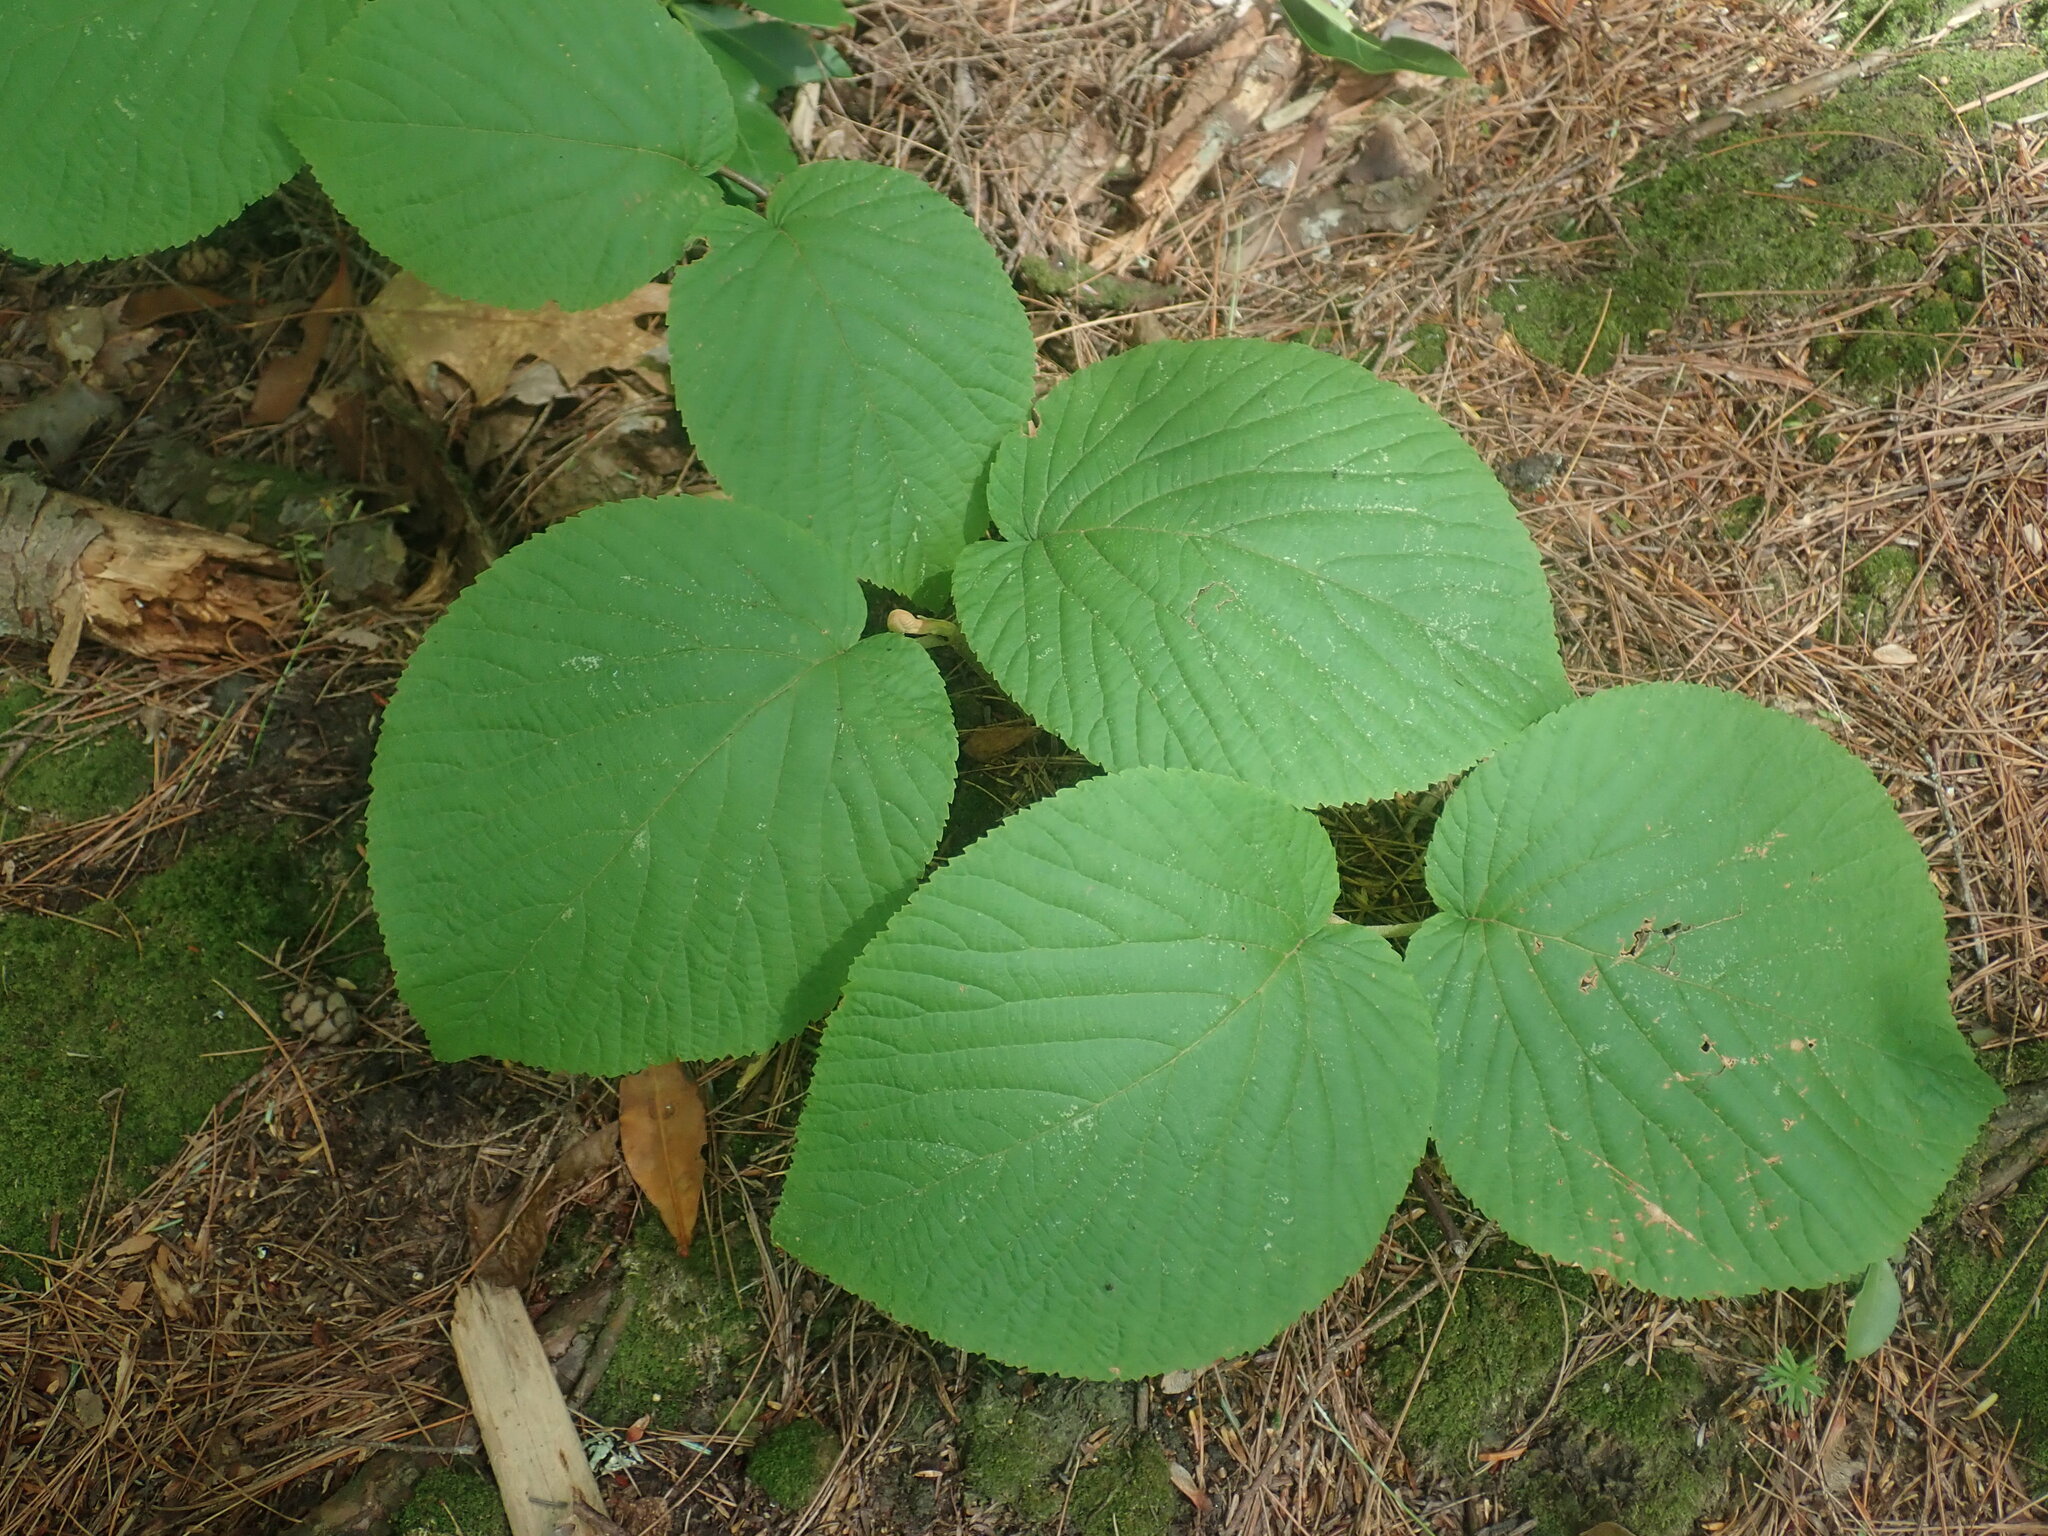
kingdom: Plantae
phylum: Tracheophyta
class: Magnoliopsida
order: Dipsacales
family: Viburnaceae
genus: Viburnum
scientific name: Viburnum lantanoides
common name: Hobblebush
